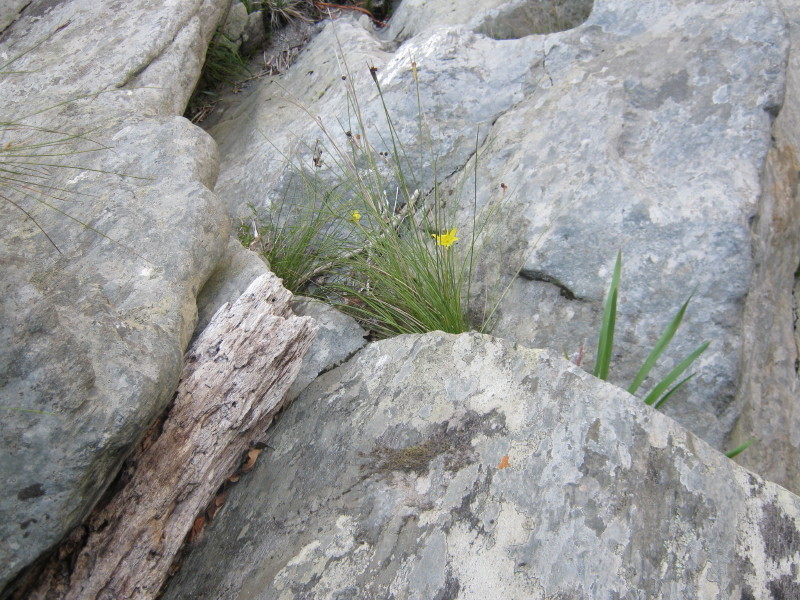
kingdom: Plantae
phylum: Tracheophyta
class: Liliopsida
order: Asparagales
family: Iridaceae
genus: Bobartia
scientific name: Bobartia aphylla
